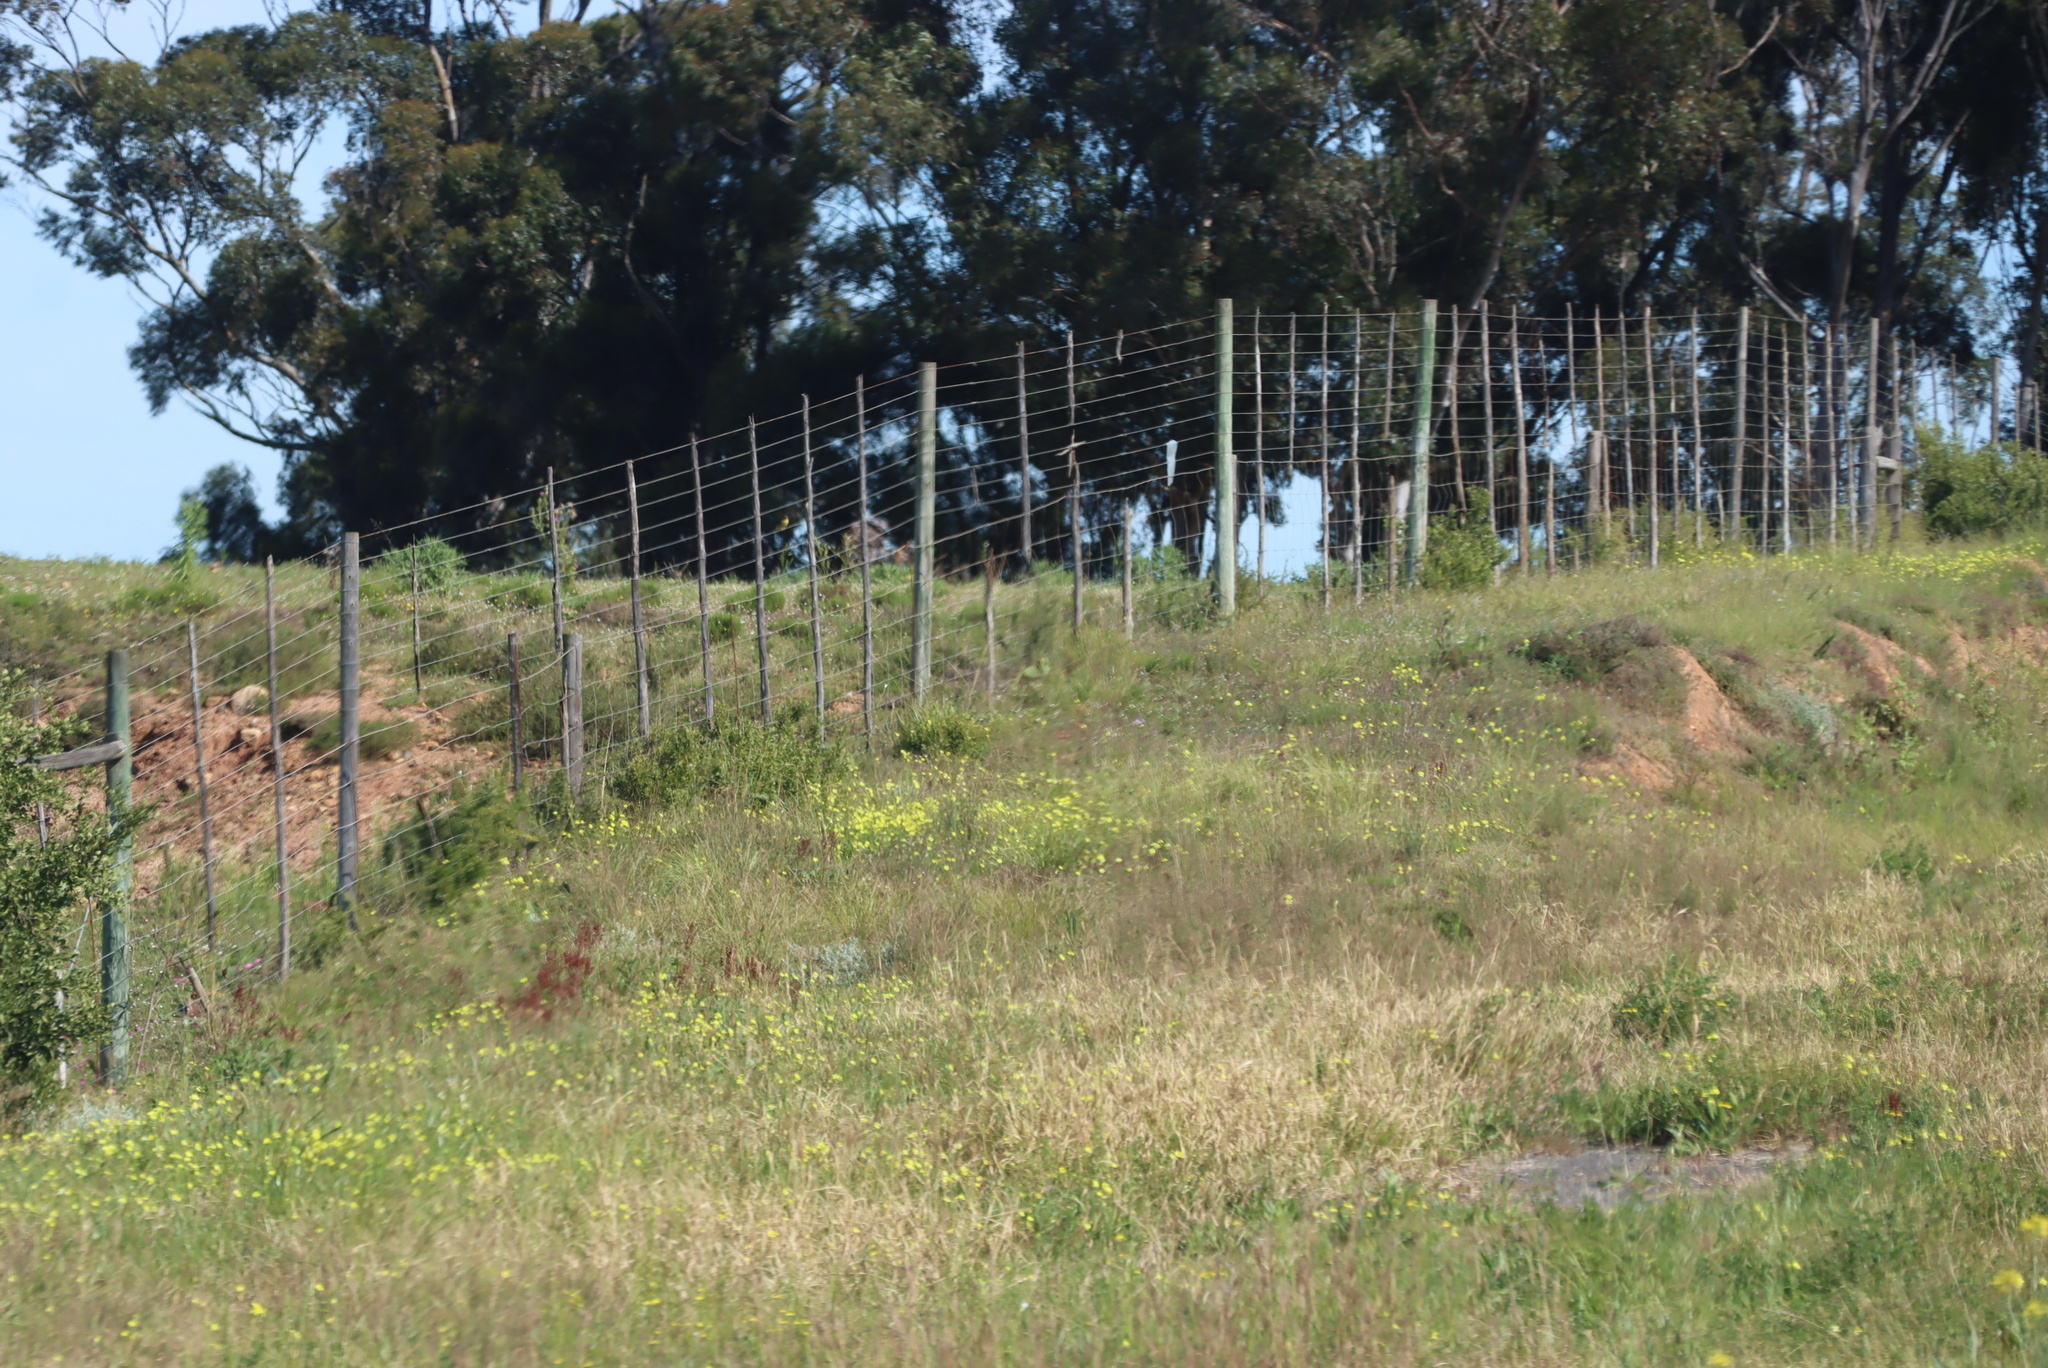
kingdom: Plantae
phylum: Tracheophyta
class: Magnoliopsida
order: Oxalidales
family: Oxalidaceae
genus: Oxalis
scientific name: Oxalis pes-caprae
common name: Bermuda-buttercup
